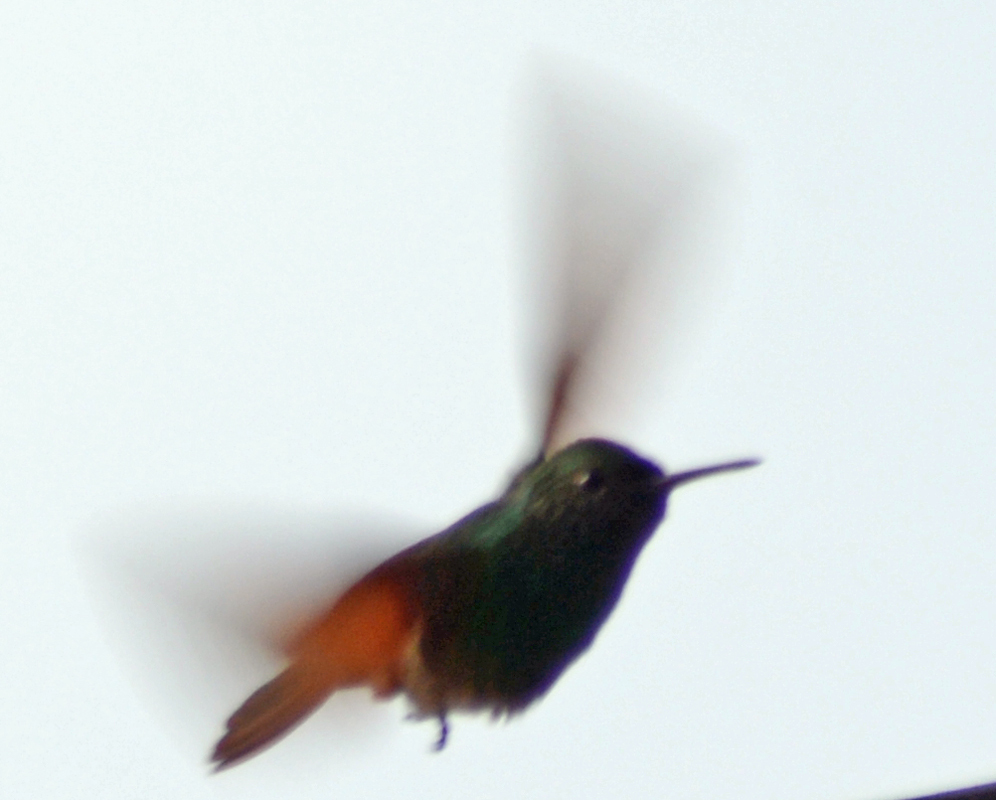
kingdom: Animalia
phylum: Chordata
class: Aves
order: Apodiformes
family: Trochilidae
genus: Saucerottia
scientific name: Saucerottia beryllina
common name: Berylline hummingbird
